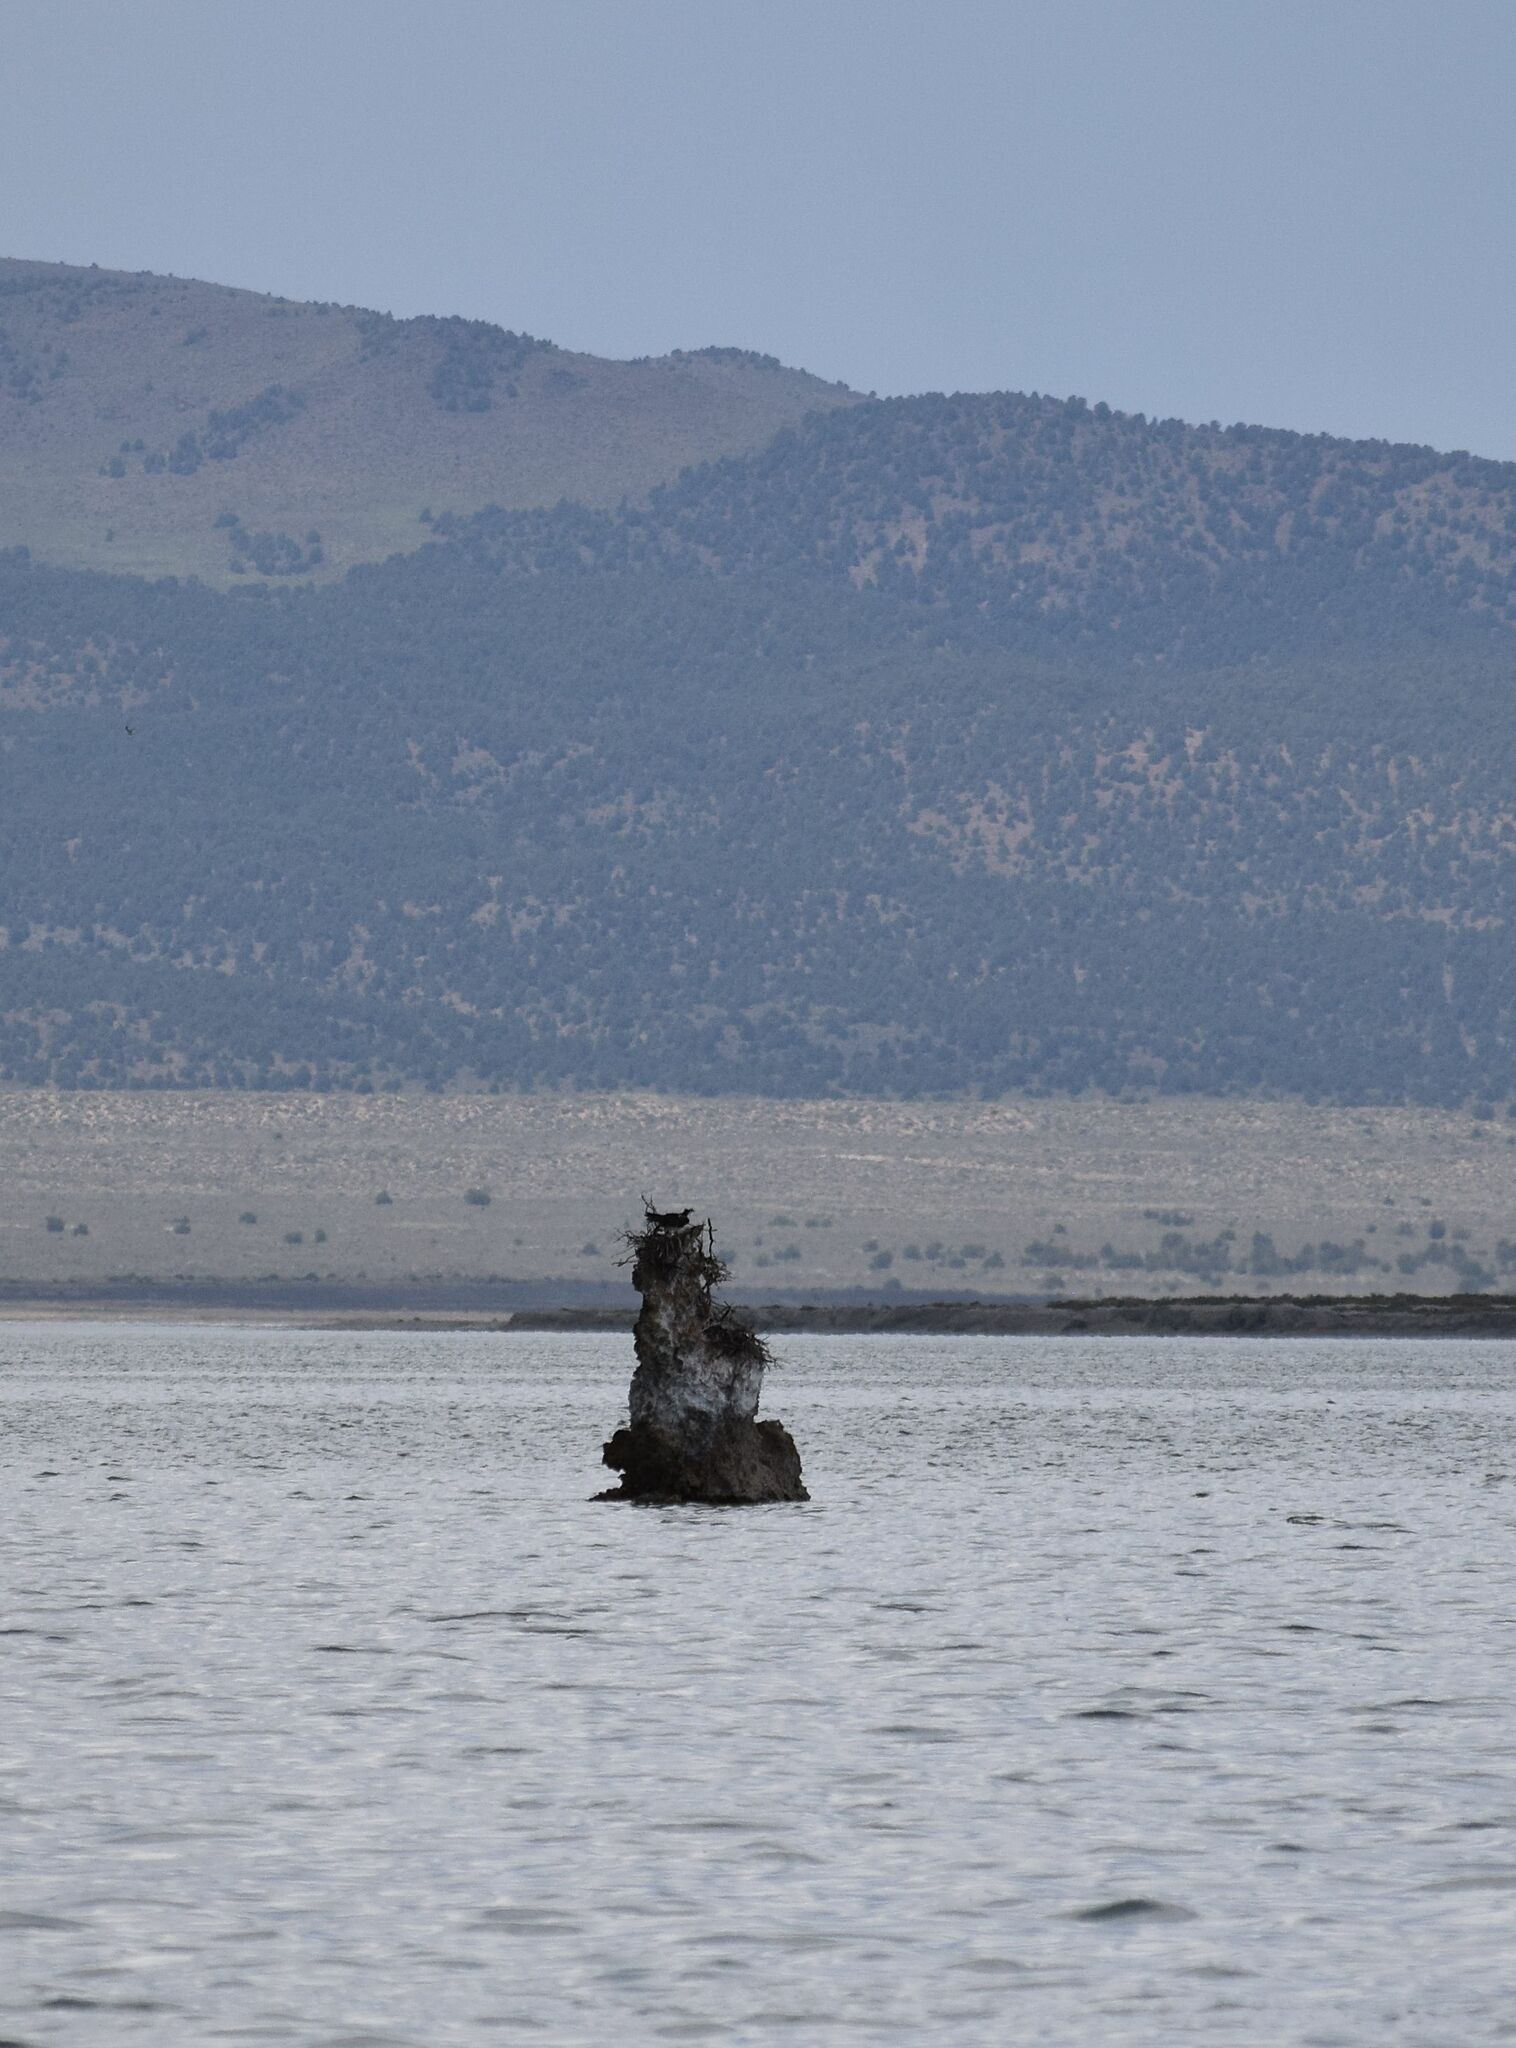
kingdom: Animalia
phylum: Chordata
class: Aves
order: Accipitriformes
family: Pandionidae
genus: Pandion
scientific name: Pandion haliaetus
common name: Osprey
